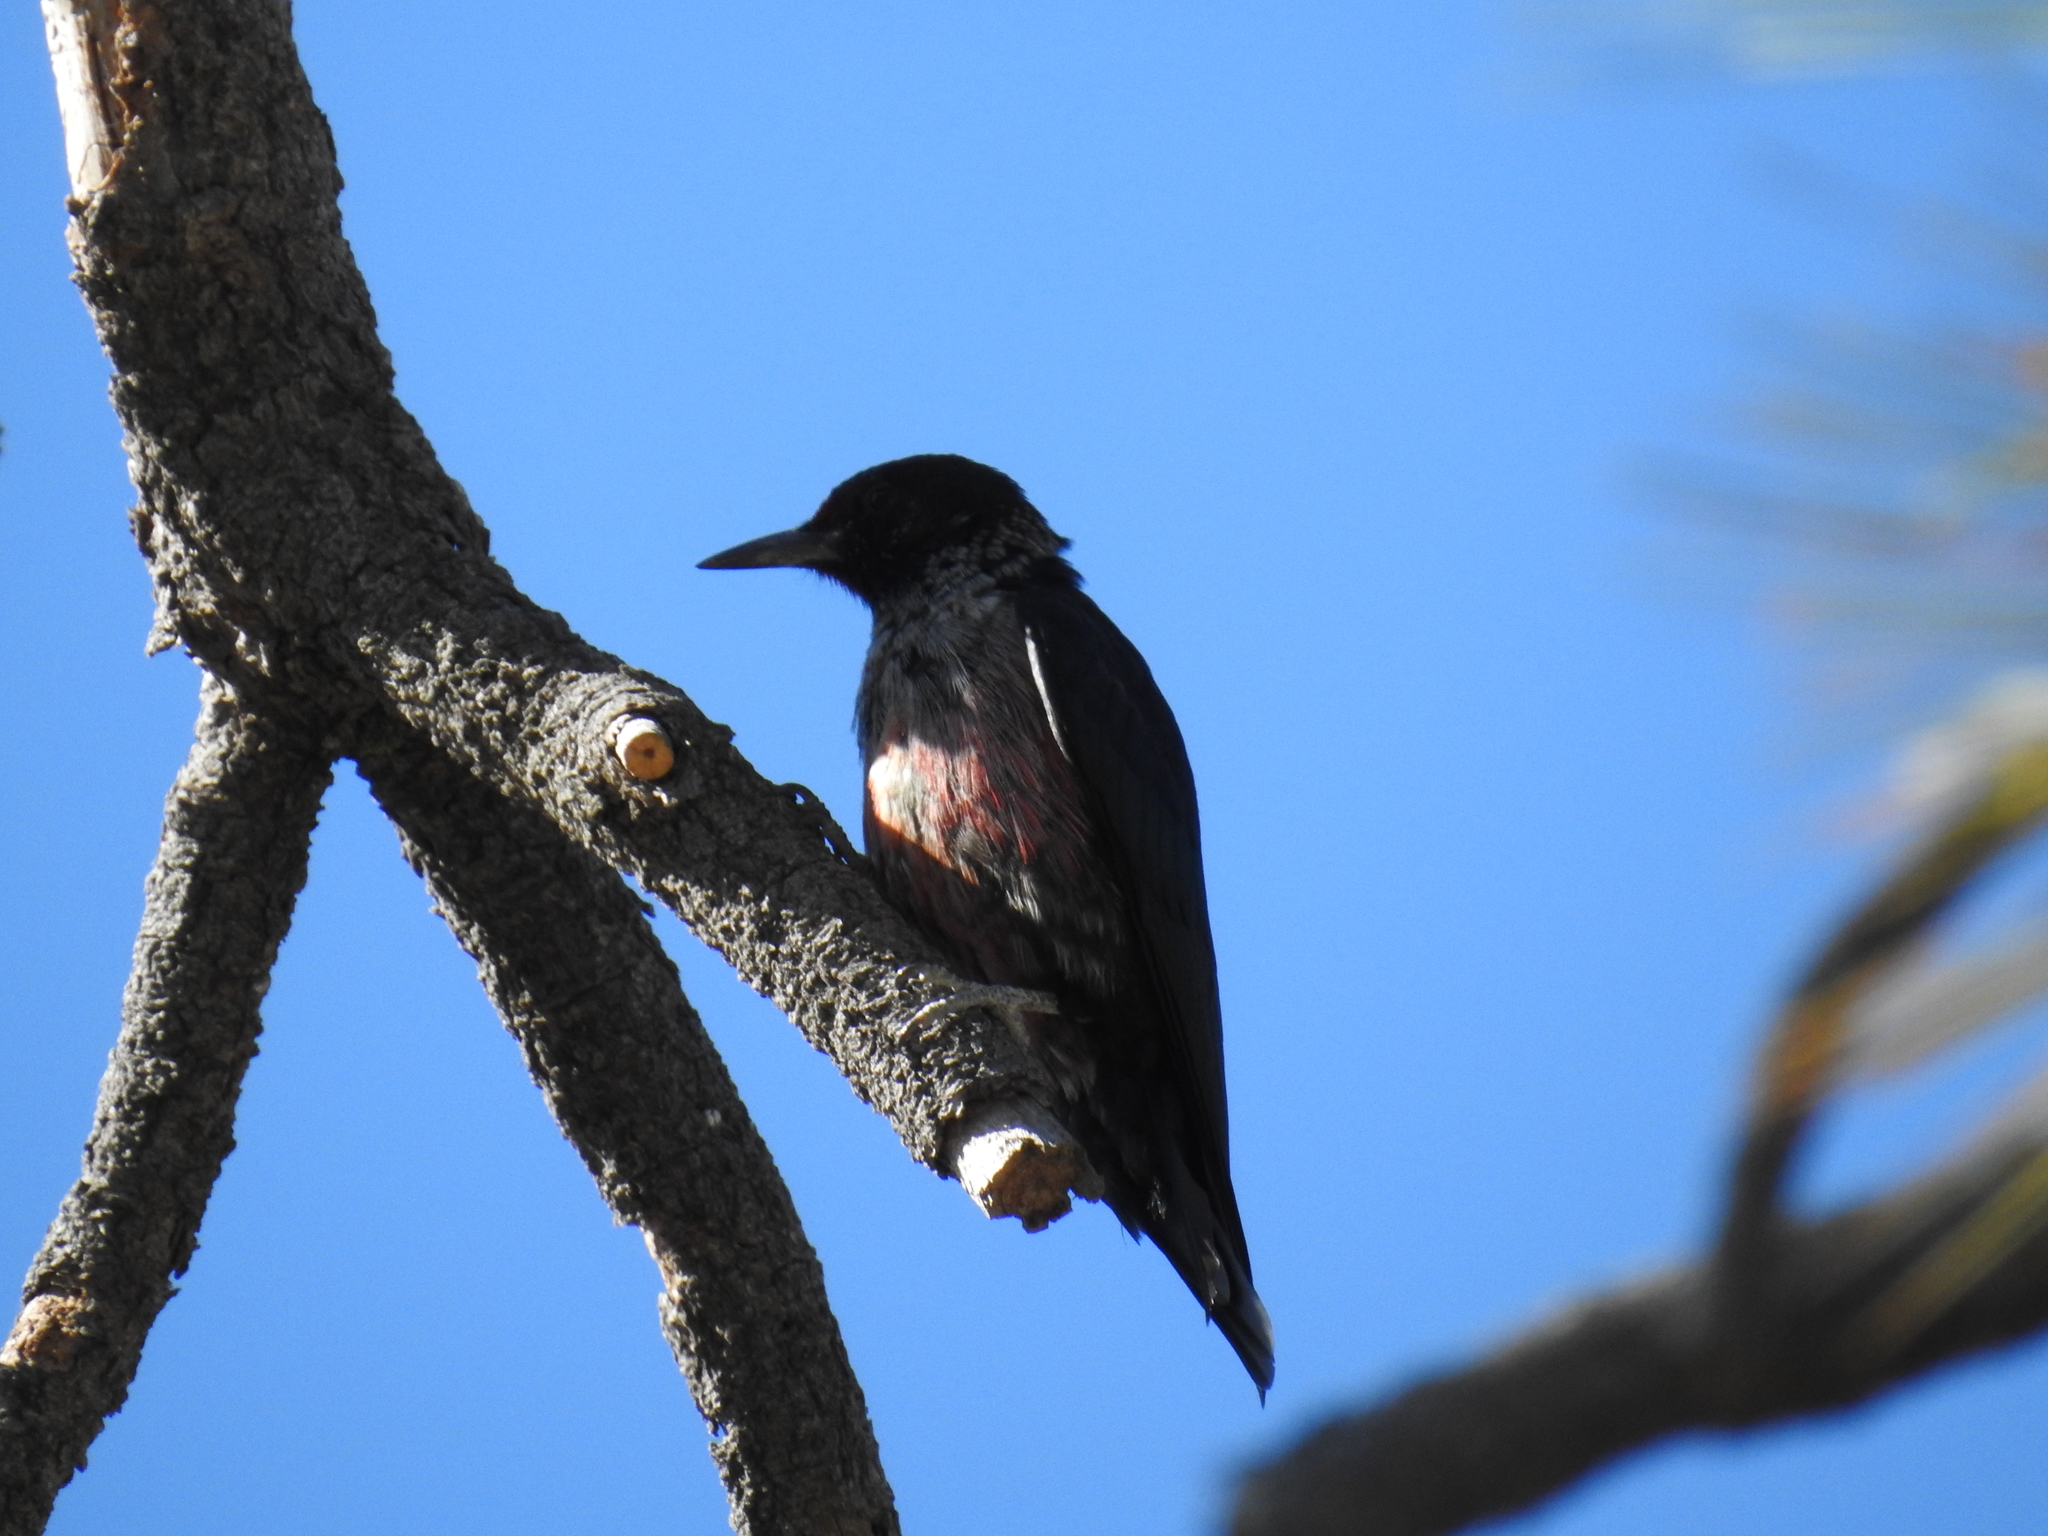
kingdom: Animalia
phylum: Chordata
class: Aves
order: Piciformes
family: Picidae
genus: Melanerpes
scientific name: Melanerpes lewis
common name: Lewis's woodpecker
